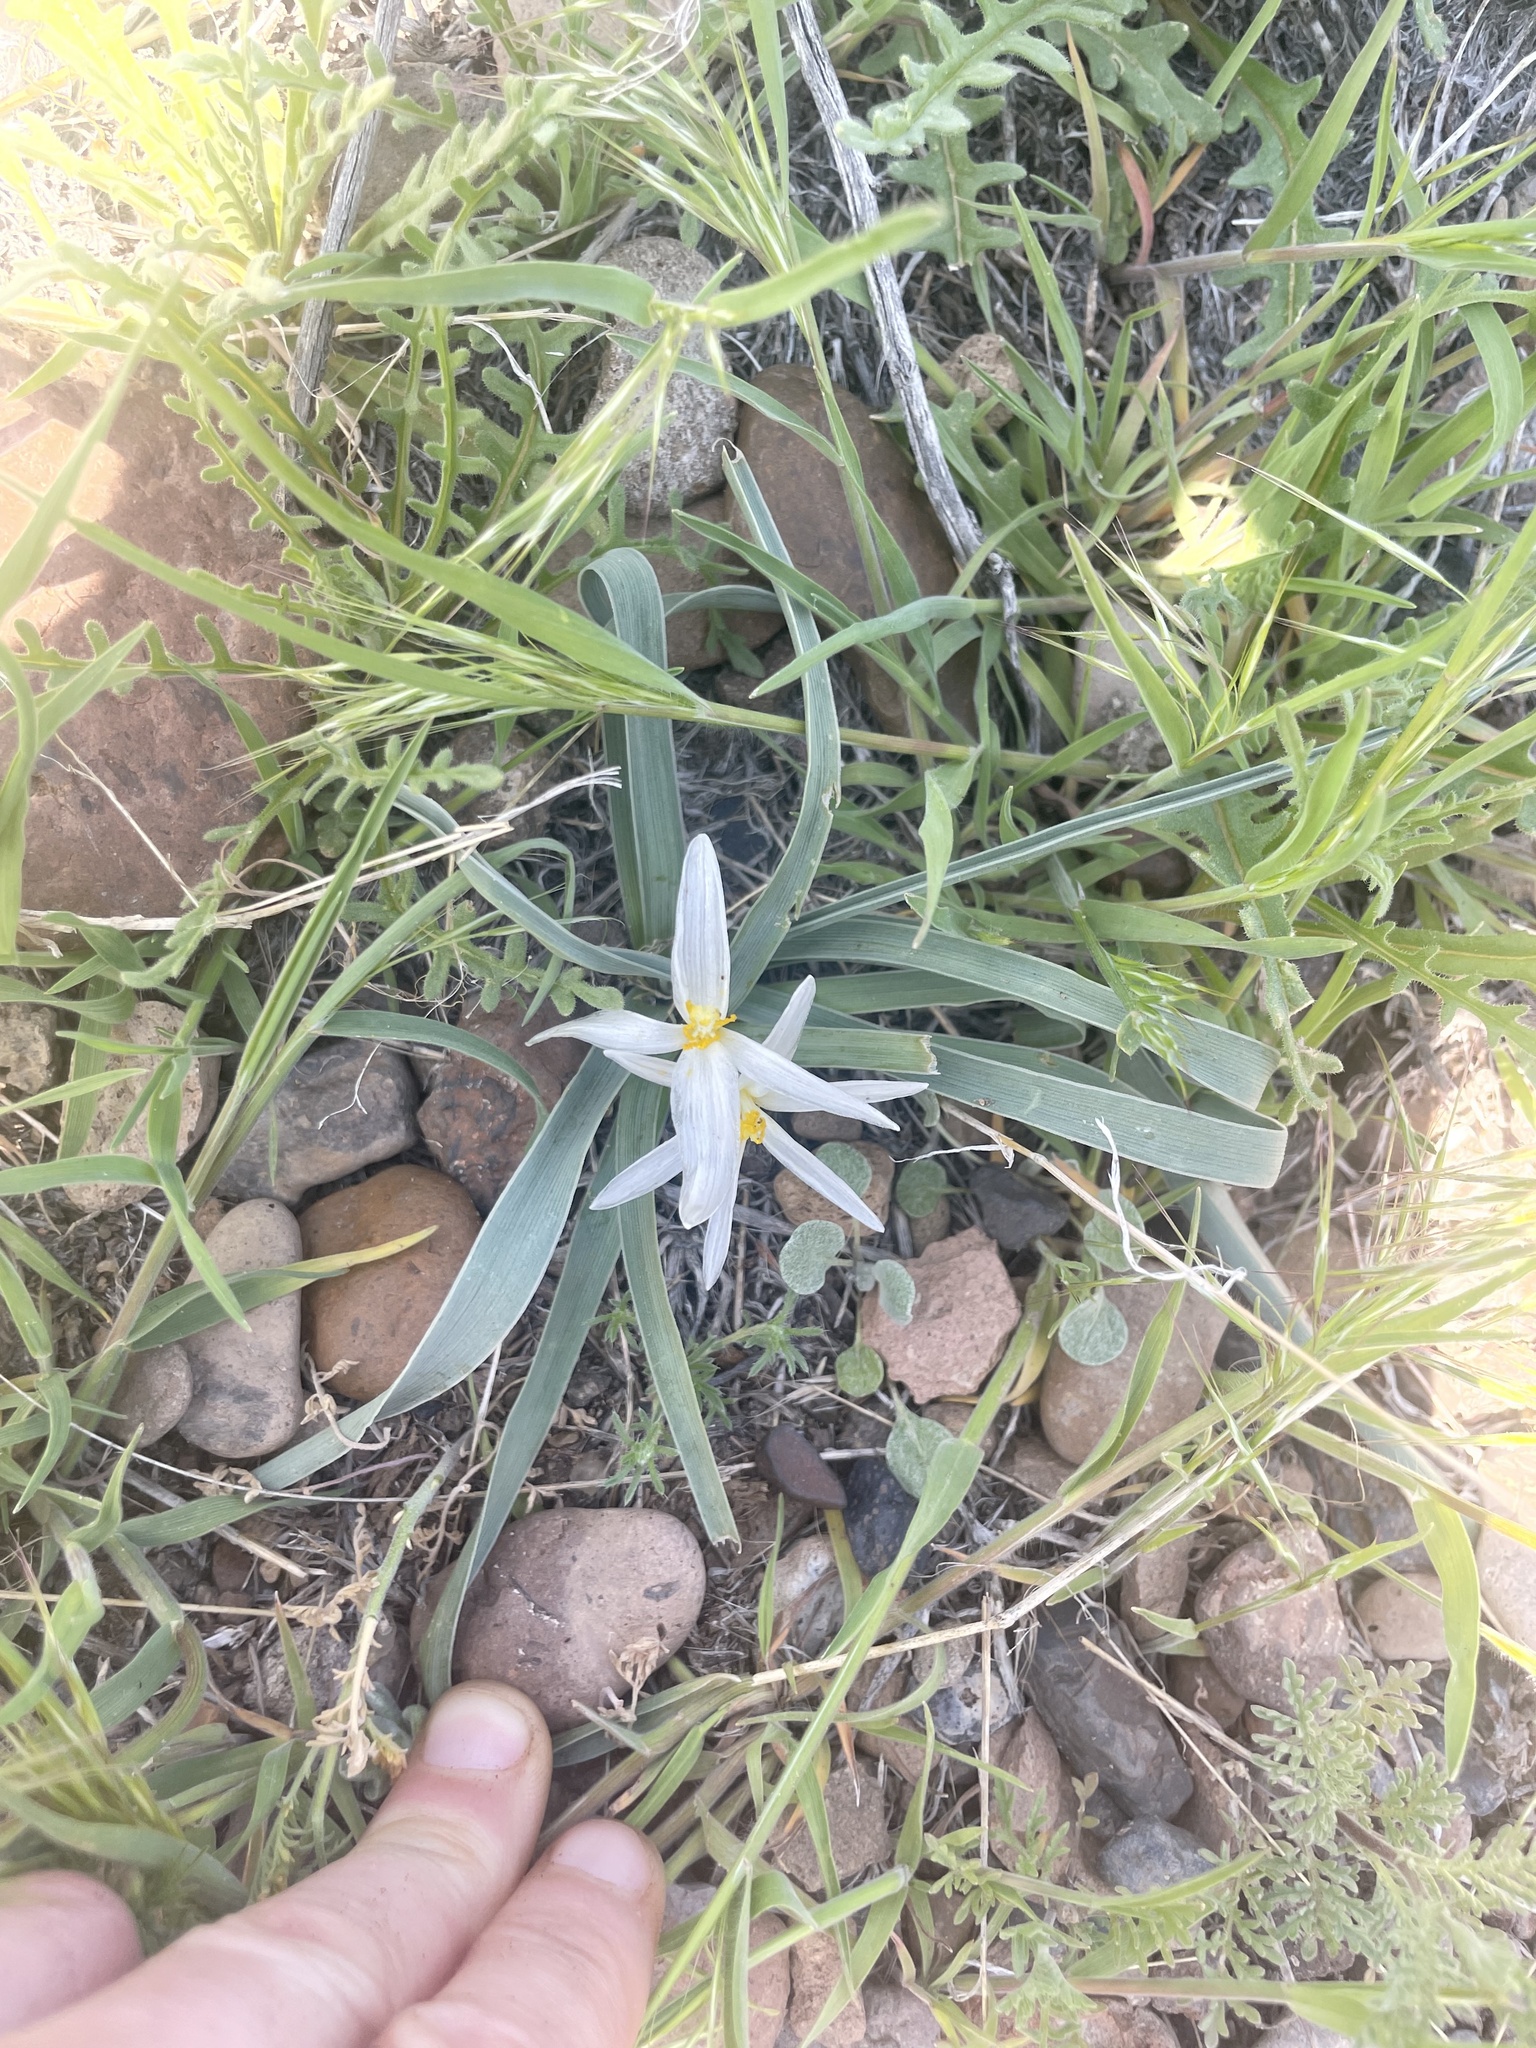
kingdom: Plantae
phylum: Tracheophyta
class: Liliopsida
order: Asparagales
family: Asparagaceae
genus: Leucocrinum
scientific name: Leucocrinum montanum
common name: Mountain-lily
